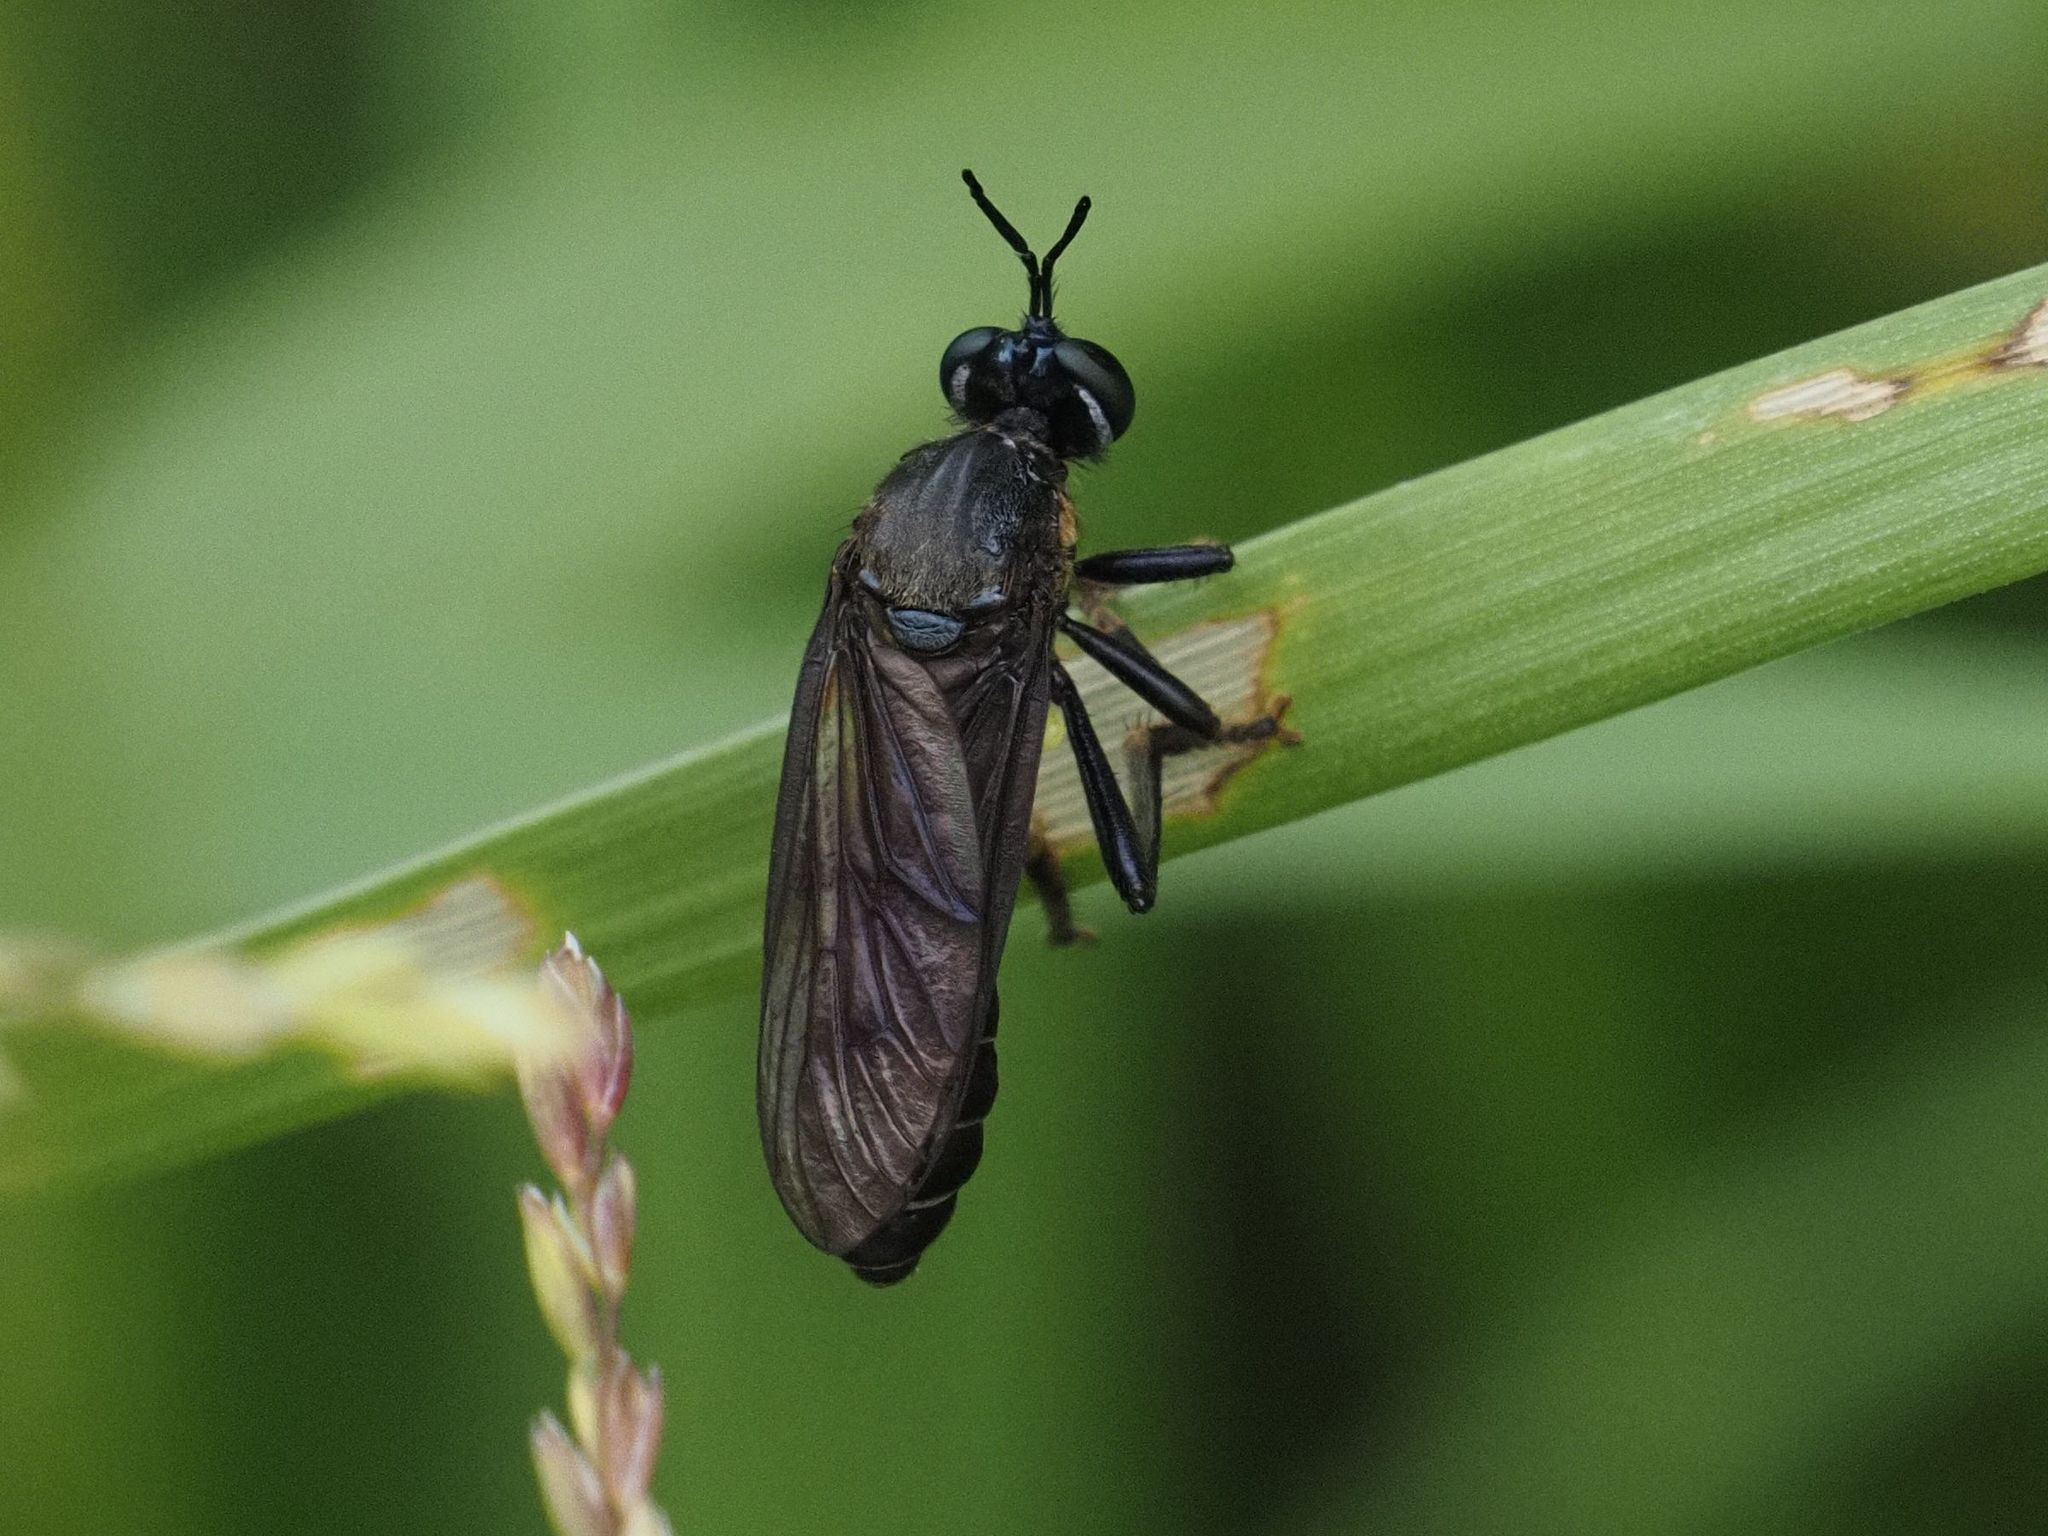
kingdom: Animalia
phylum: Arthropoda
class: Insecta
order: Diptera
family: Asilidae
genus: Dioctria
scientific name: Dioctria atricapilla
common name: Violet black-legged
